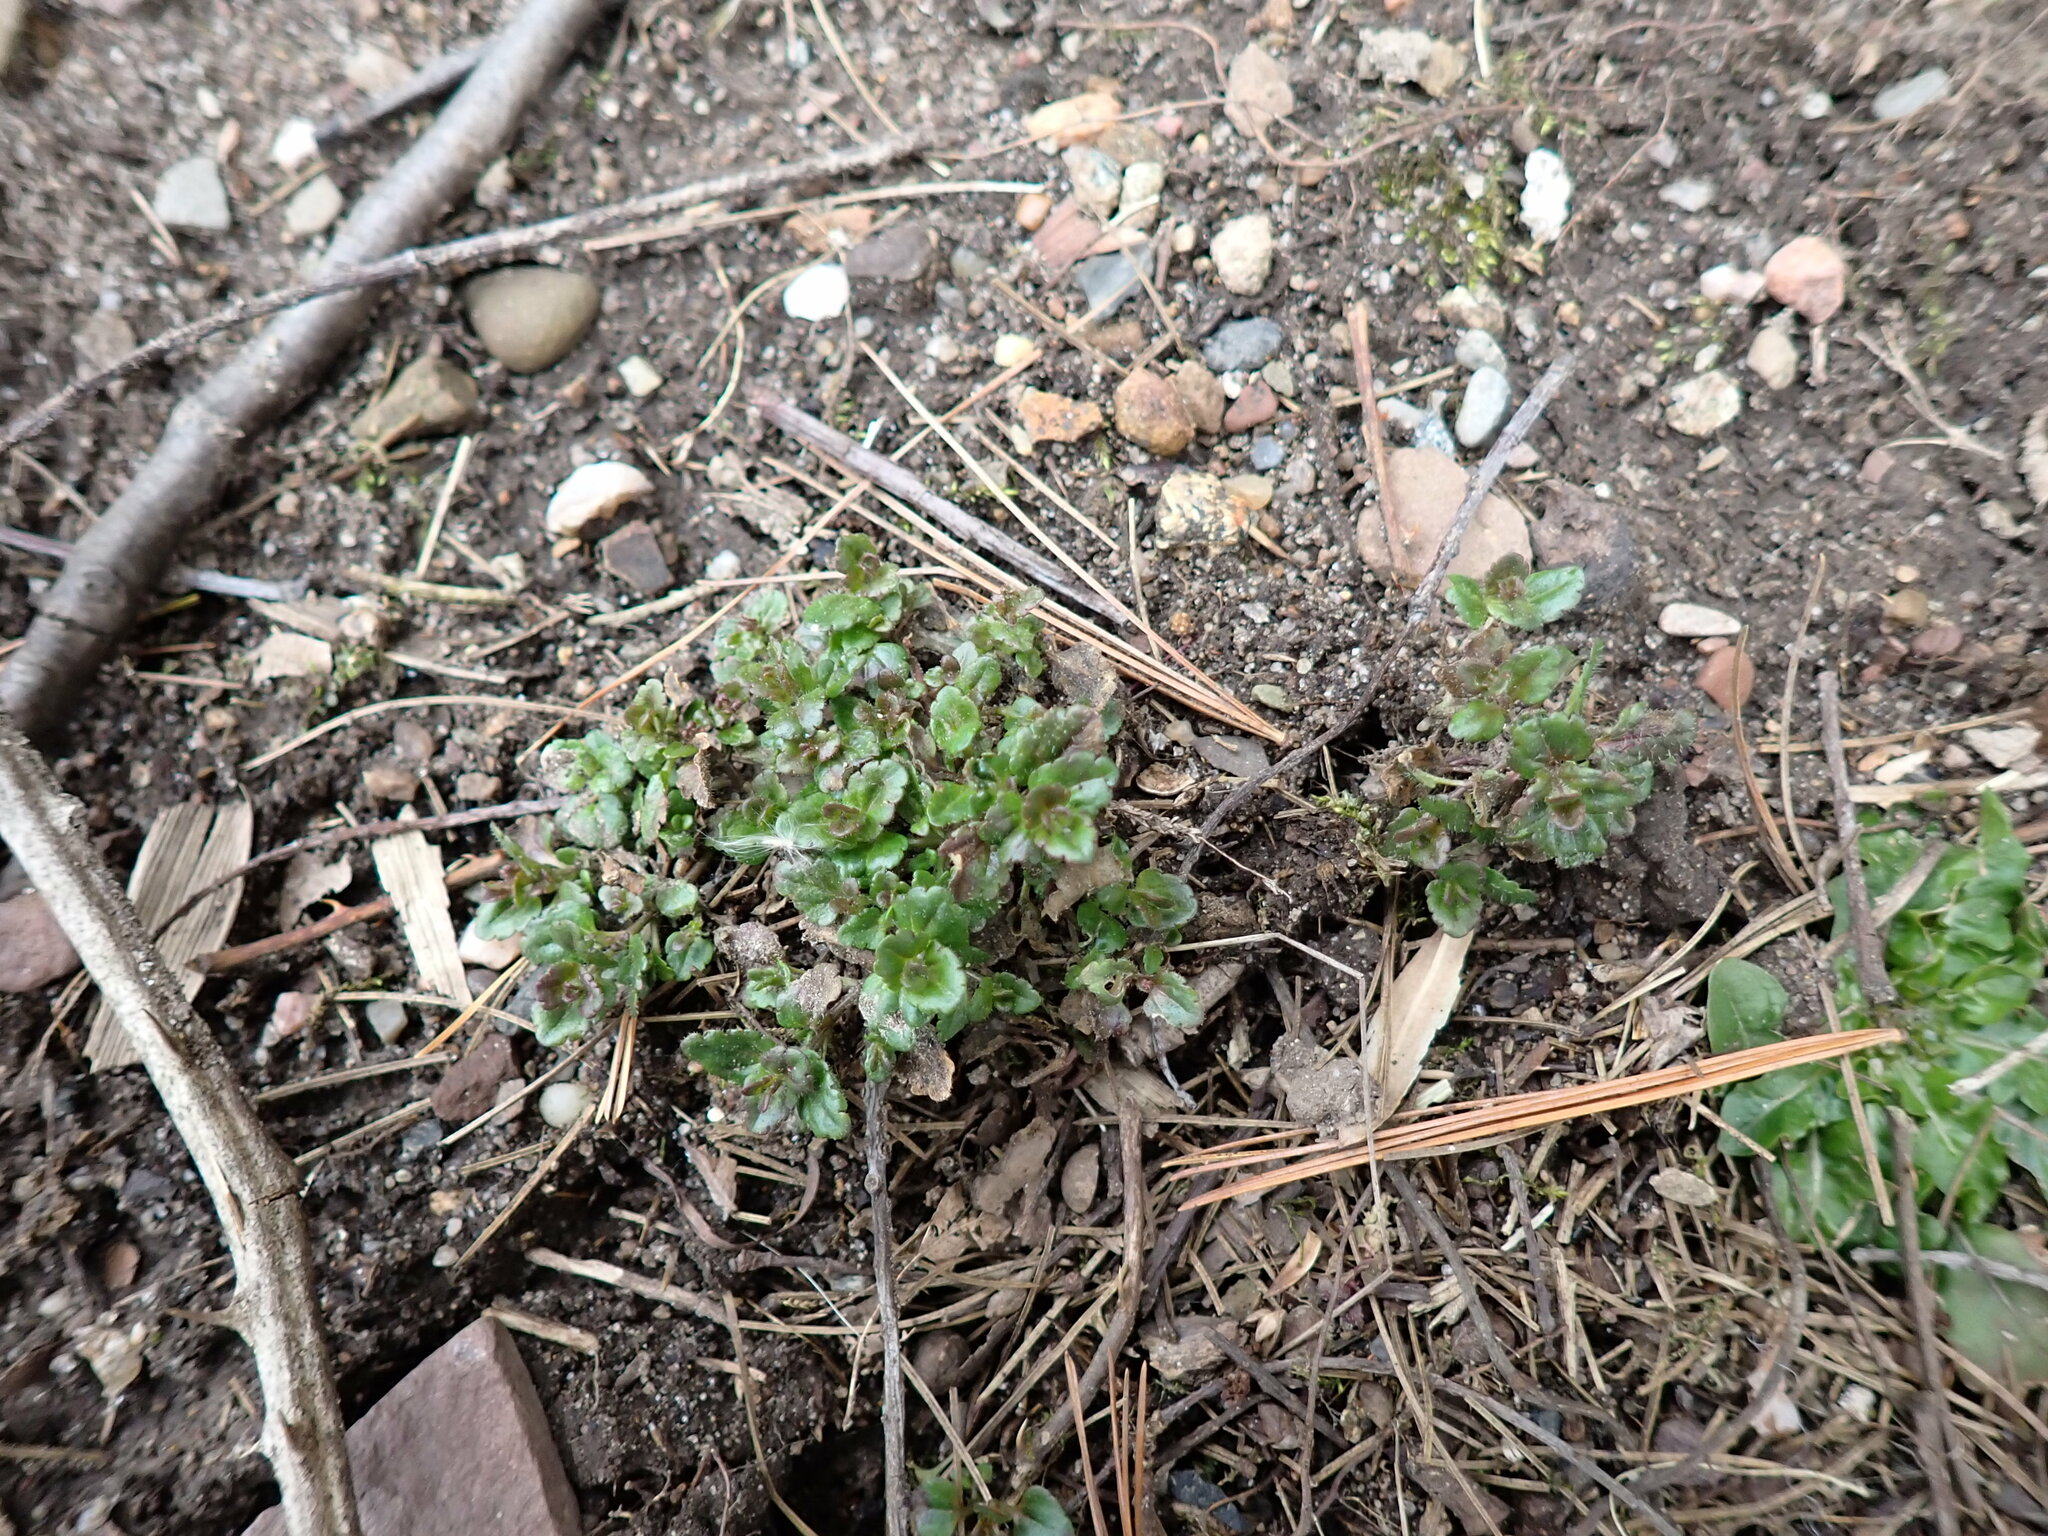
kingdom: Plantae
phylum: Tracheophyta
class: Magnoliopsida
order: Lamiales
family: Plantaginaceae
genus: Veronica
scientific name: Veronica arvensis
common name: Corn speedwell
